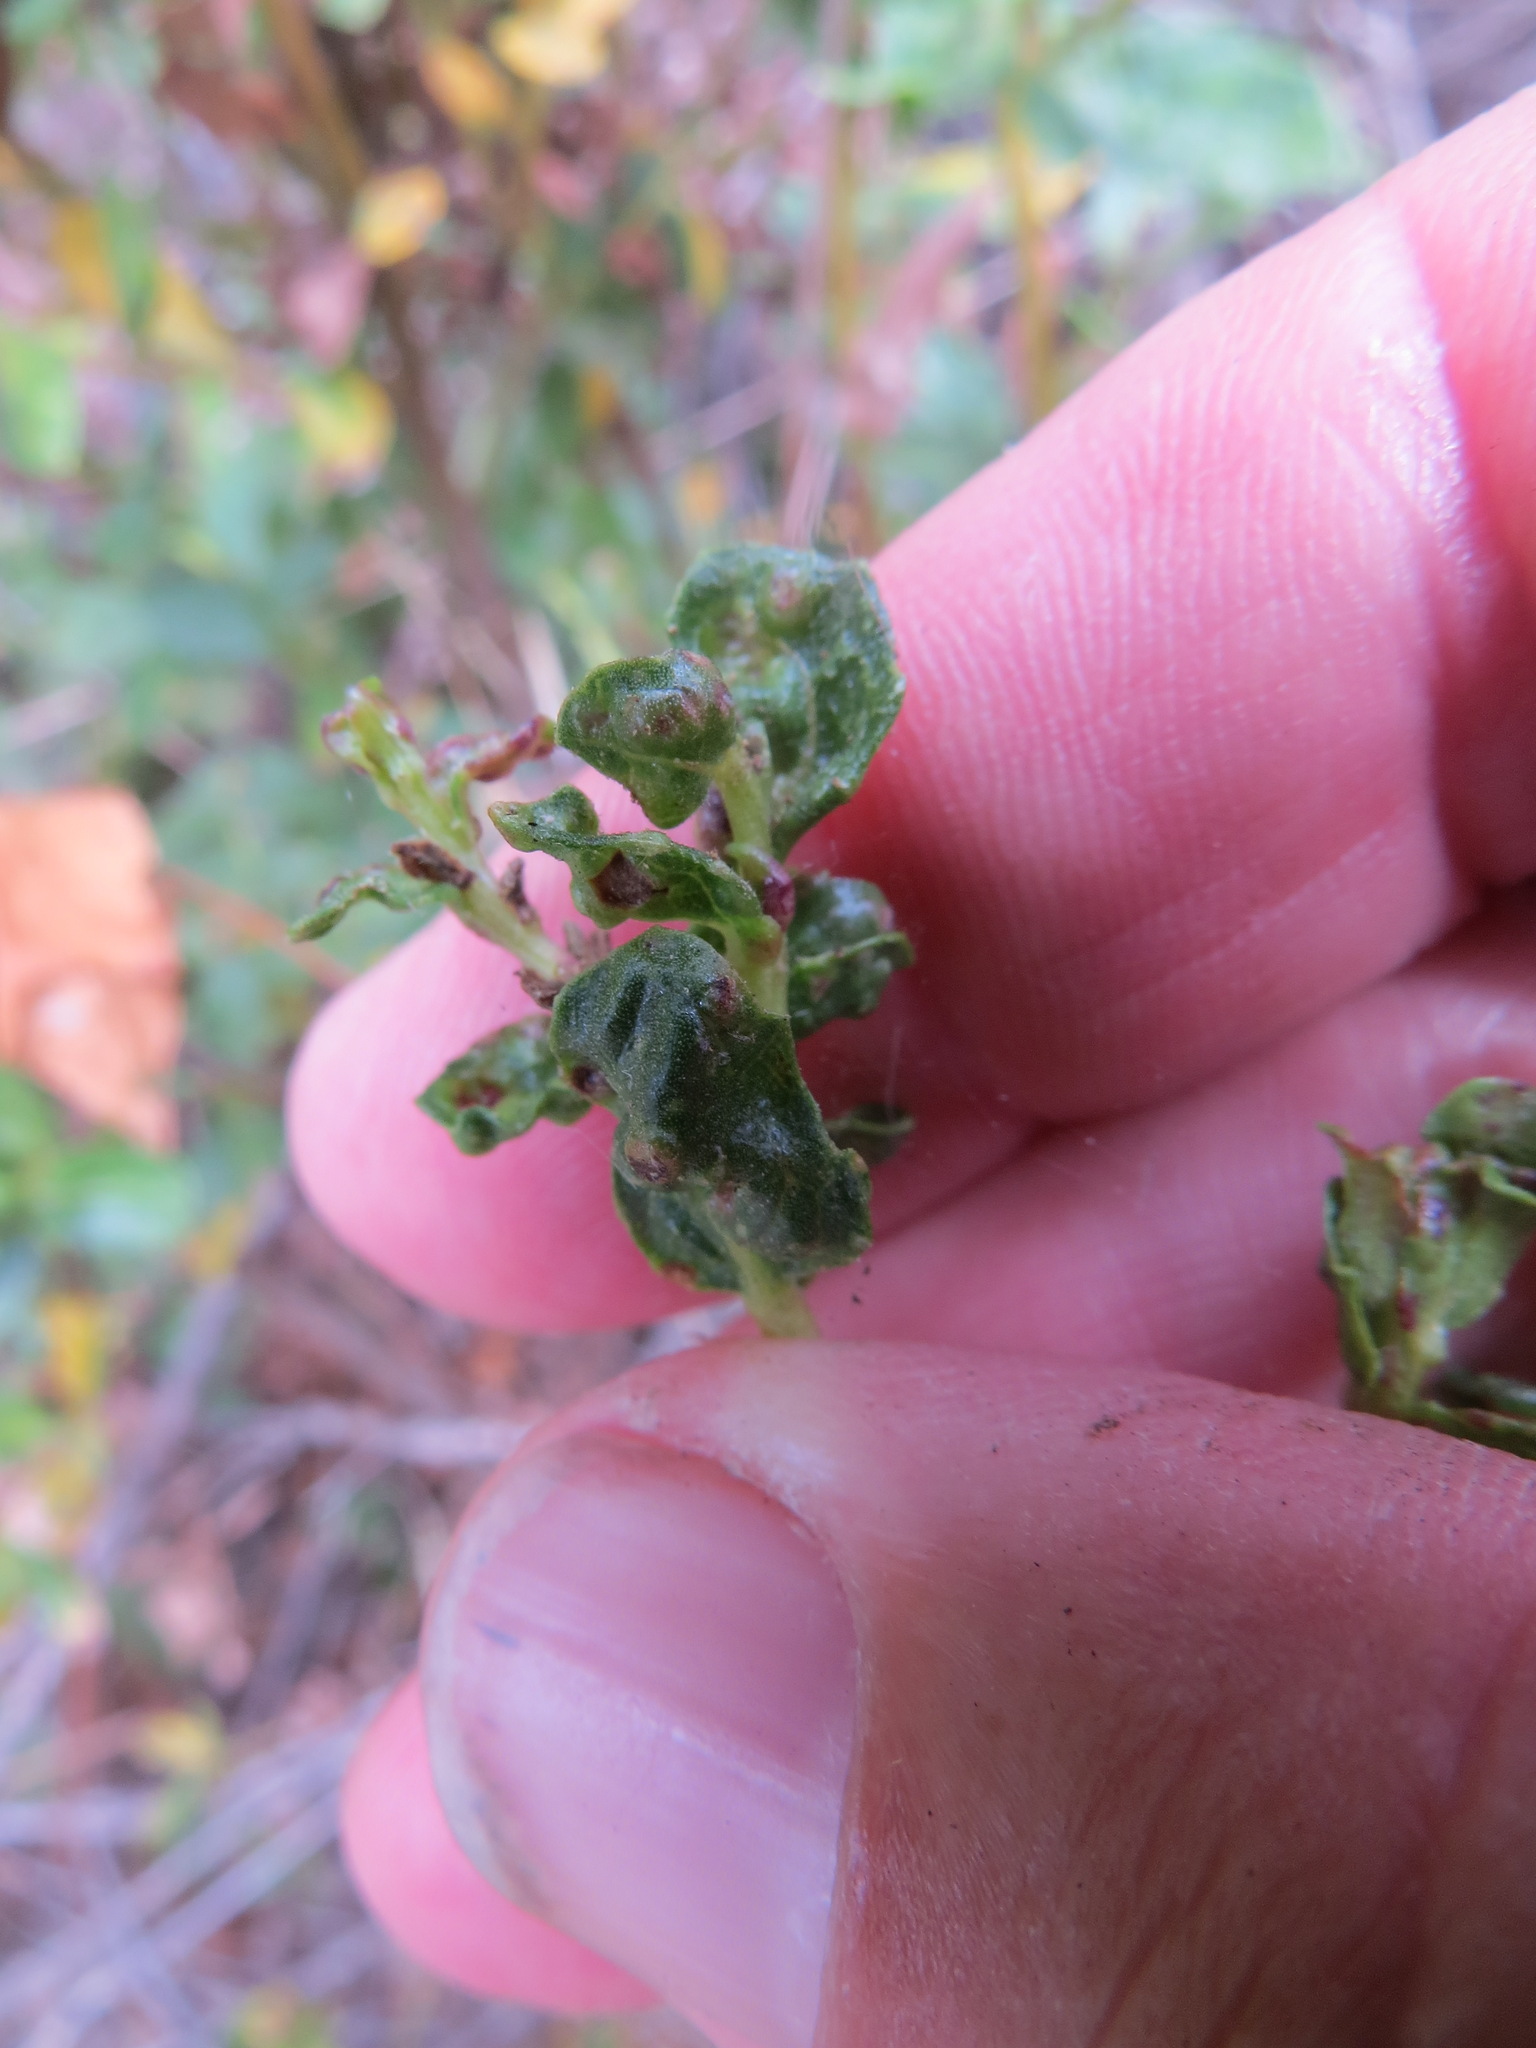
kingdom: Animalia
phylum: Arthropoda
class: Arachnida
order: Trombidiformes
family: Eriophyidae
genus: Aceria
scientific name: Aceria
